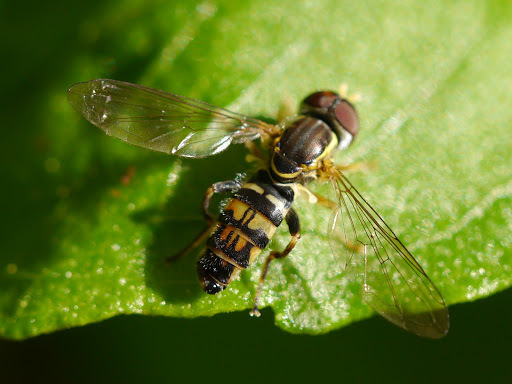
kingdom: Animalia
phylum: Arthropoda
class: Insecta
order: Diptera
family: Syrphidae
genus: Toxomerus
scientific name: Toxomerus geminatus
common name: Eastern calligrapher
